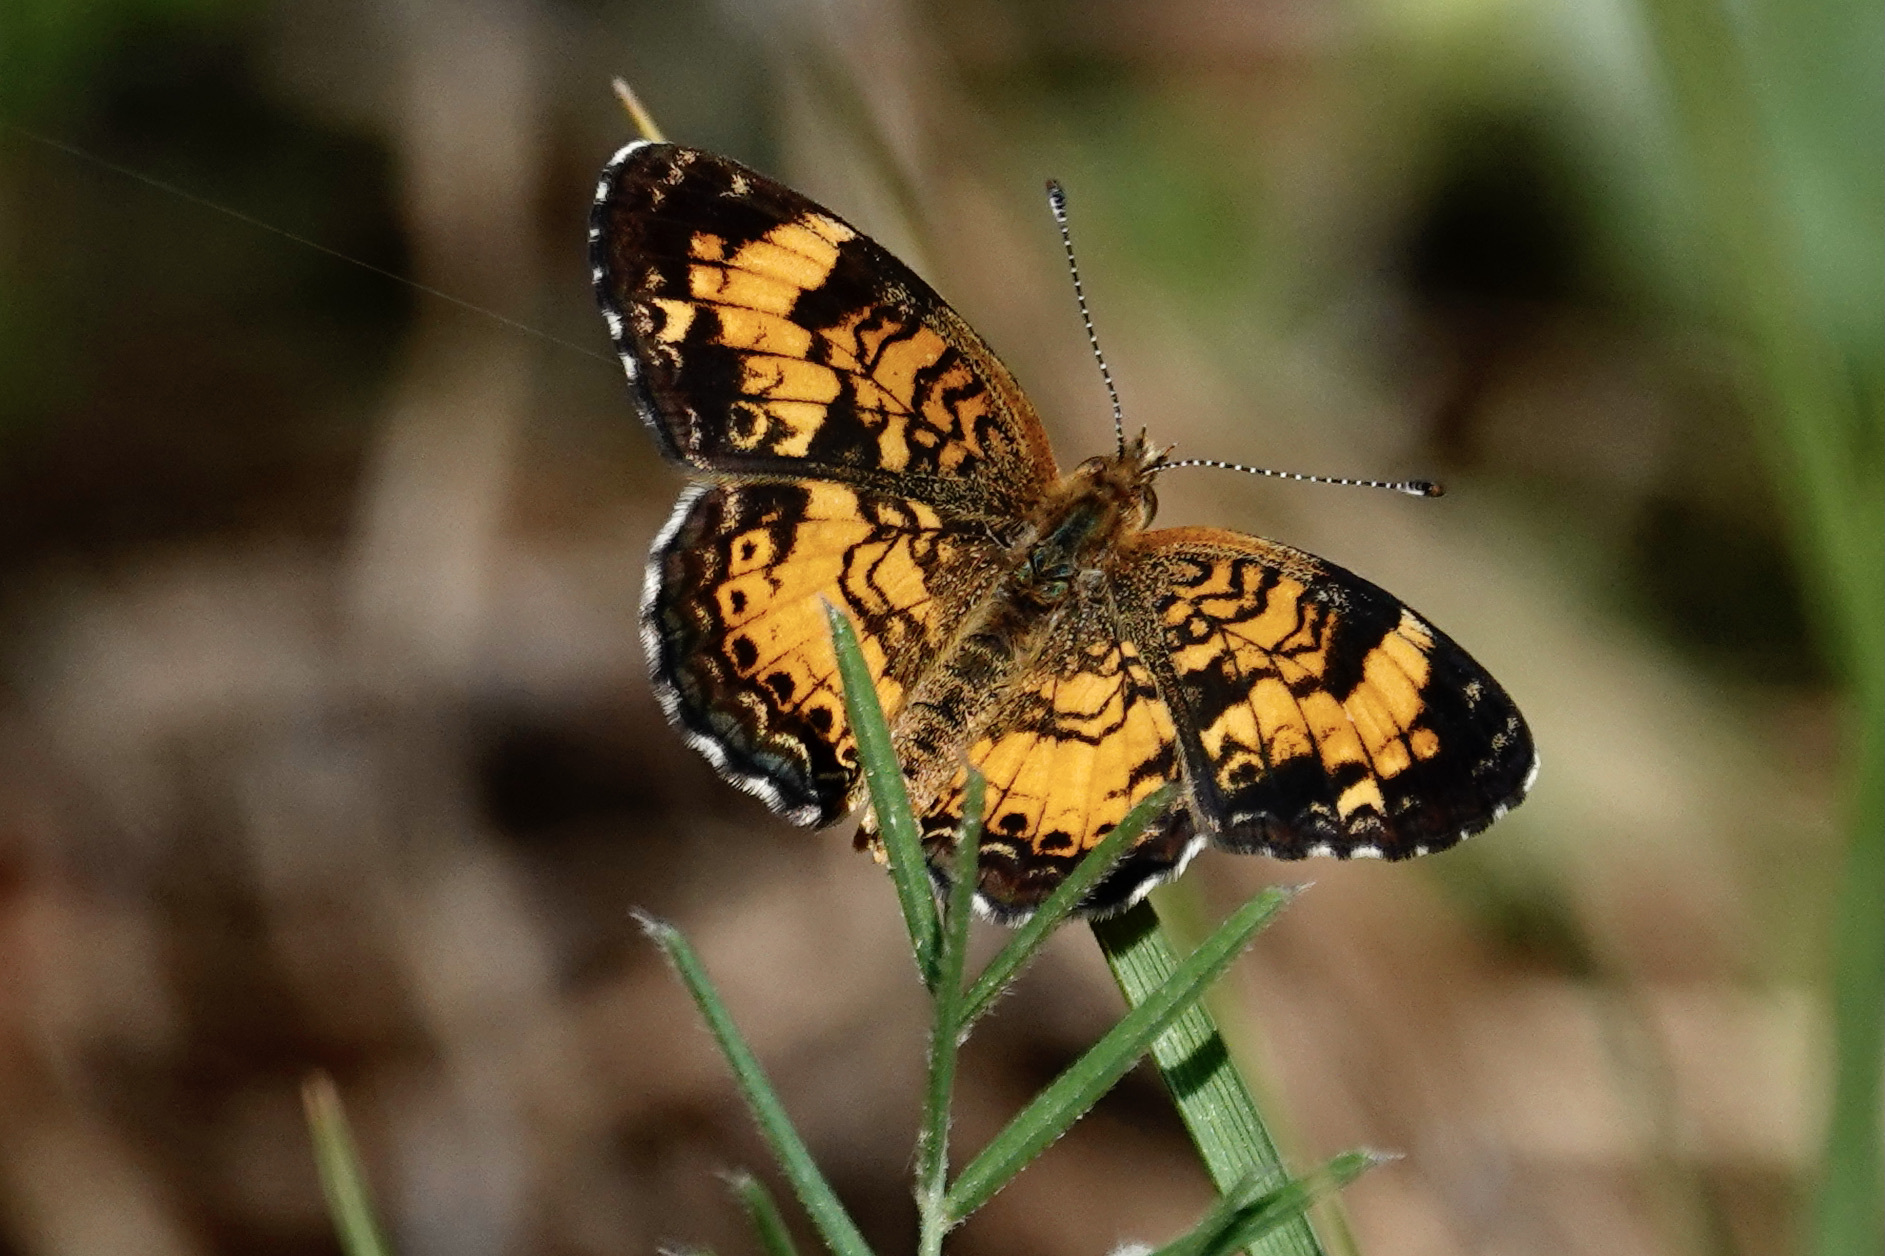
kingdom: Animalia
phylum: Arthropoda
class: Insecta
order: Lepidoptera
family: Nymphalidae
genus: Phyciodes
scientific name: Phyciodes tharos
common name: Pearl crescent
